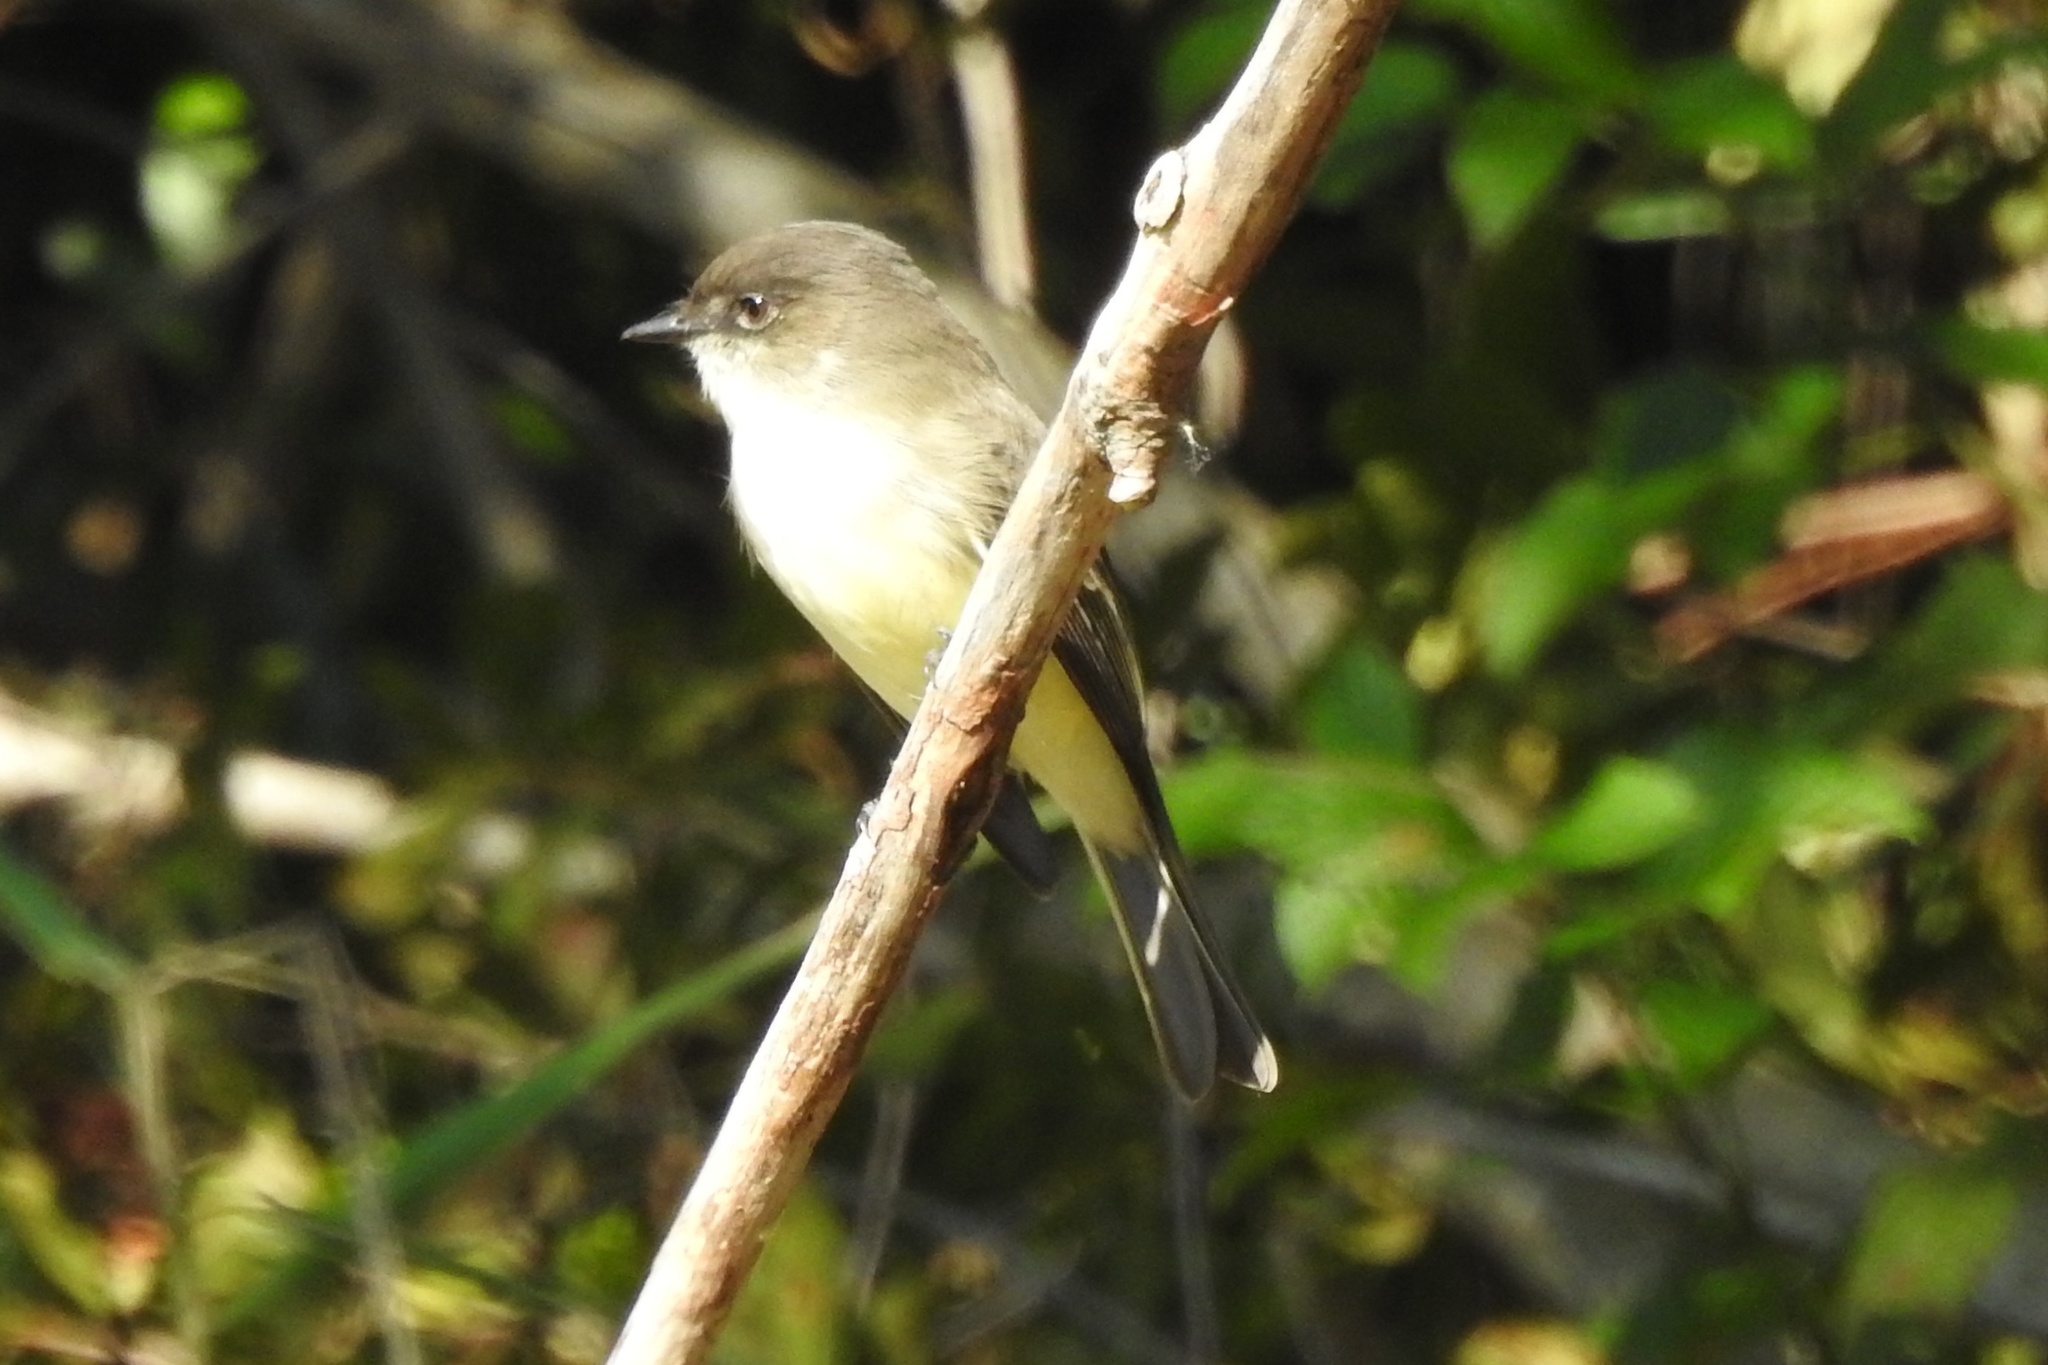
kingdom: Animalia
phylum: Chordata
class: Aves
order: Passeriformes
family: Tyrannidae
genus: Sayornis
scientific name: Sayornis phoebe
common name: Eastern phoebe
